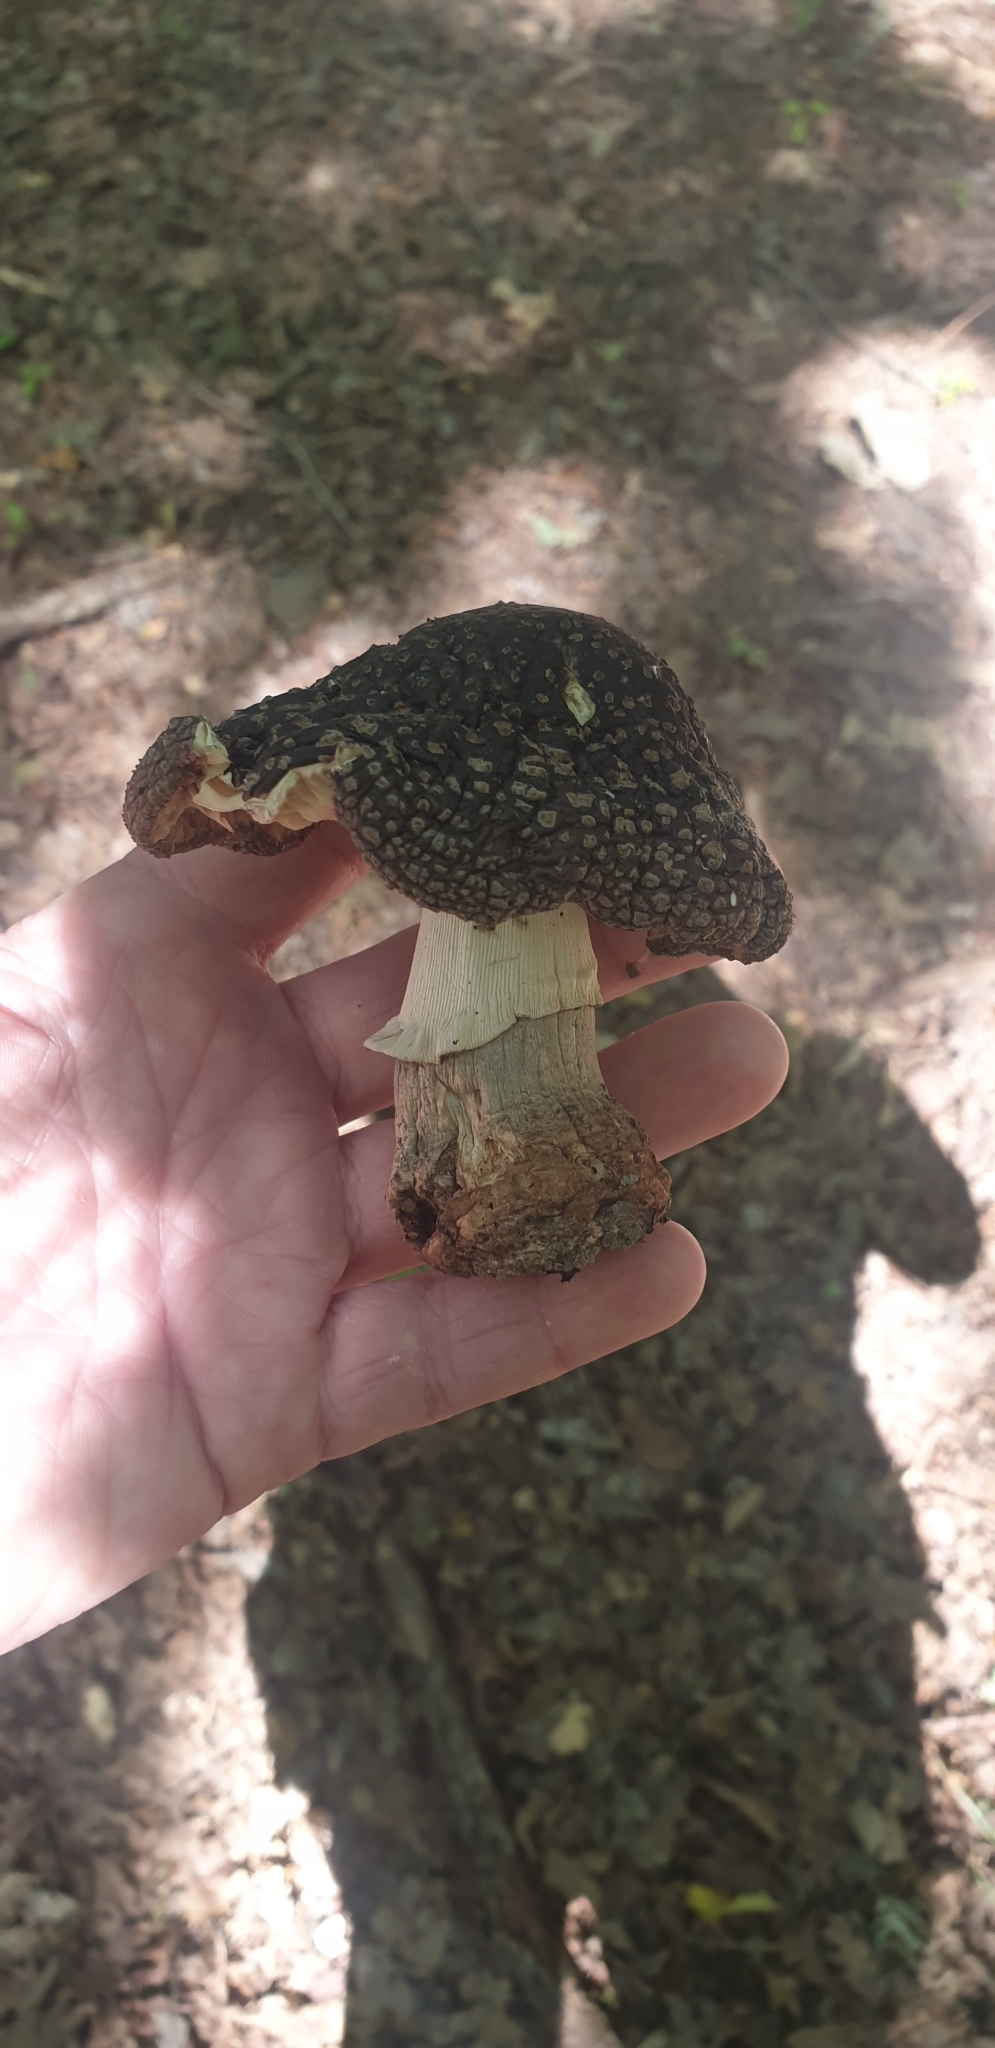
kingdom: Fungi
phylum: Basidiomycota
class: Agaricomycetes
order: Agaricales
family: Amanitaceae
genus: Amanita
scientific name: Amanita excelsa
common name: European false blusher
